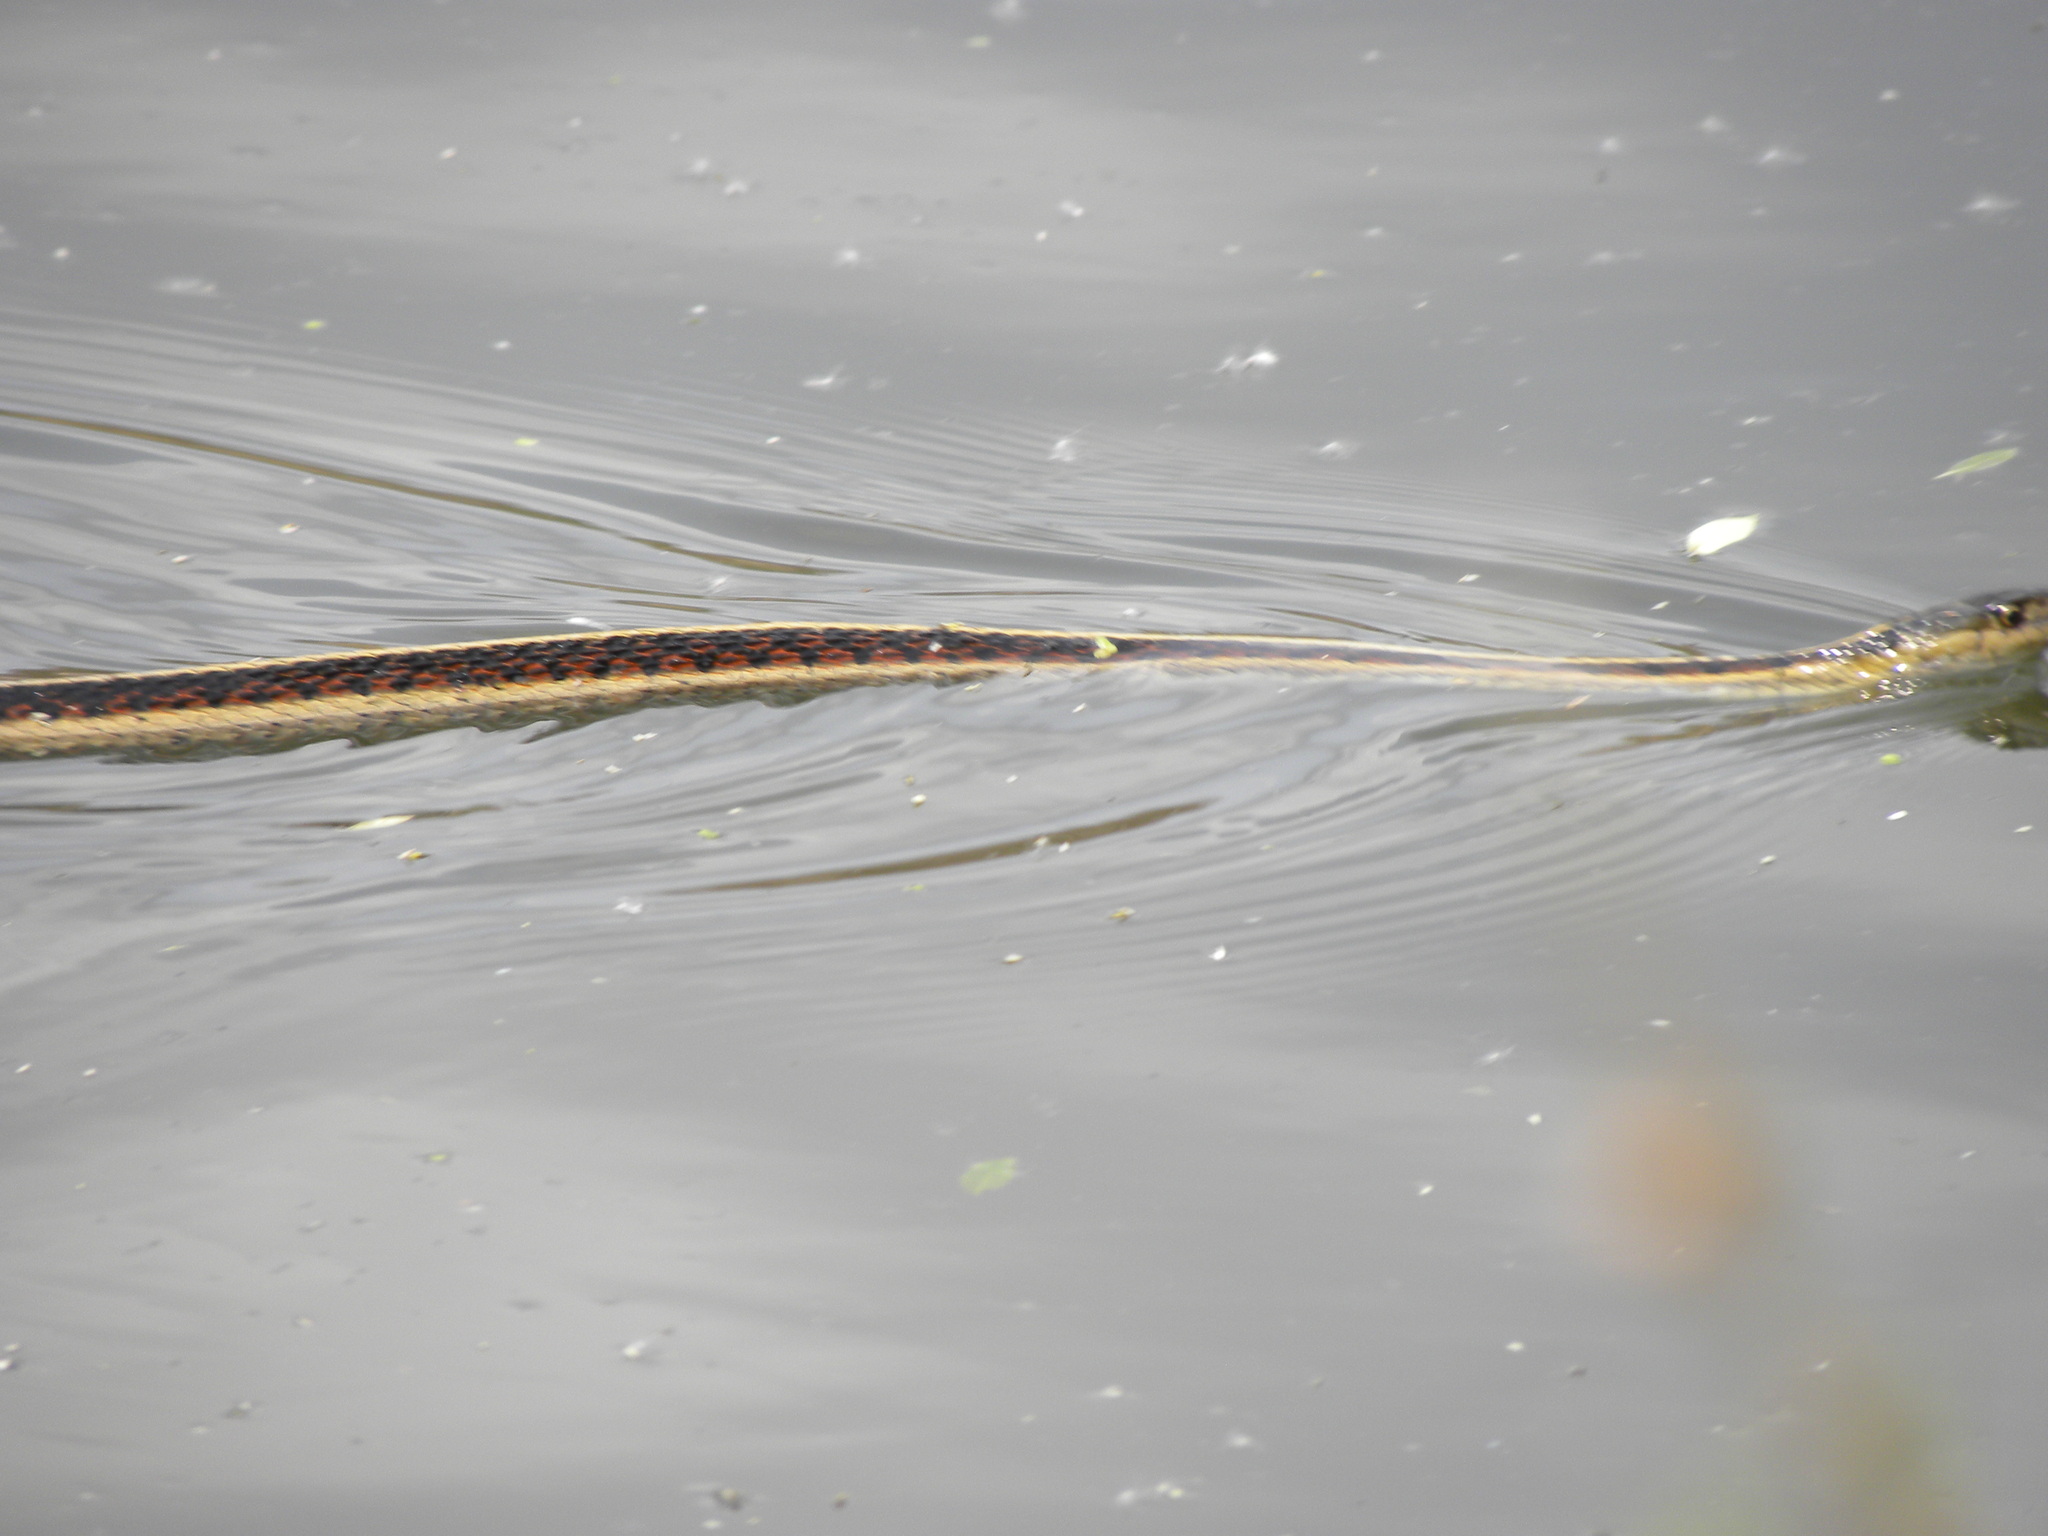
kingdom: Animalia
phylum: Chordata
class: Squamata
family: Colubridae
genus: Thamnophis
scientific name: Thamnophis sirtalis
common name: Common garter snake
